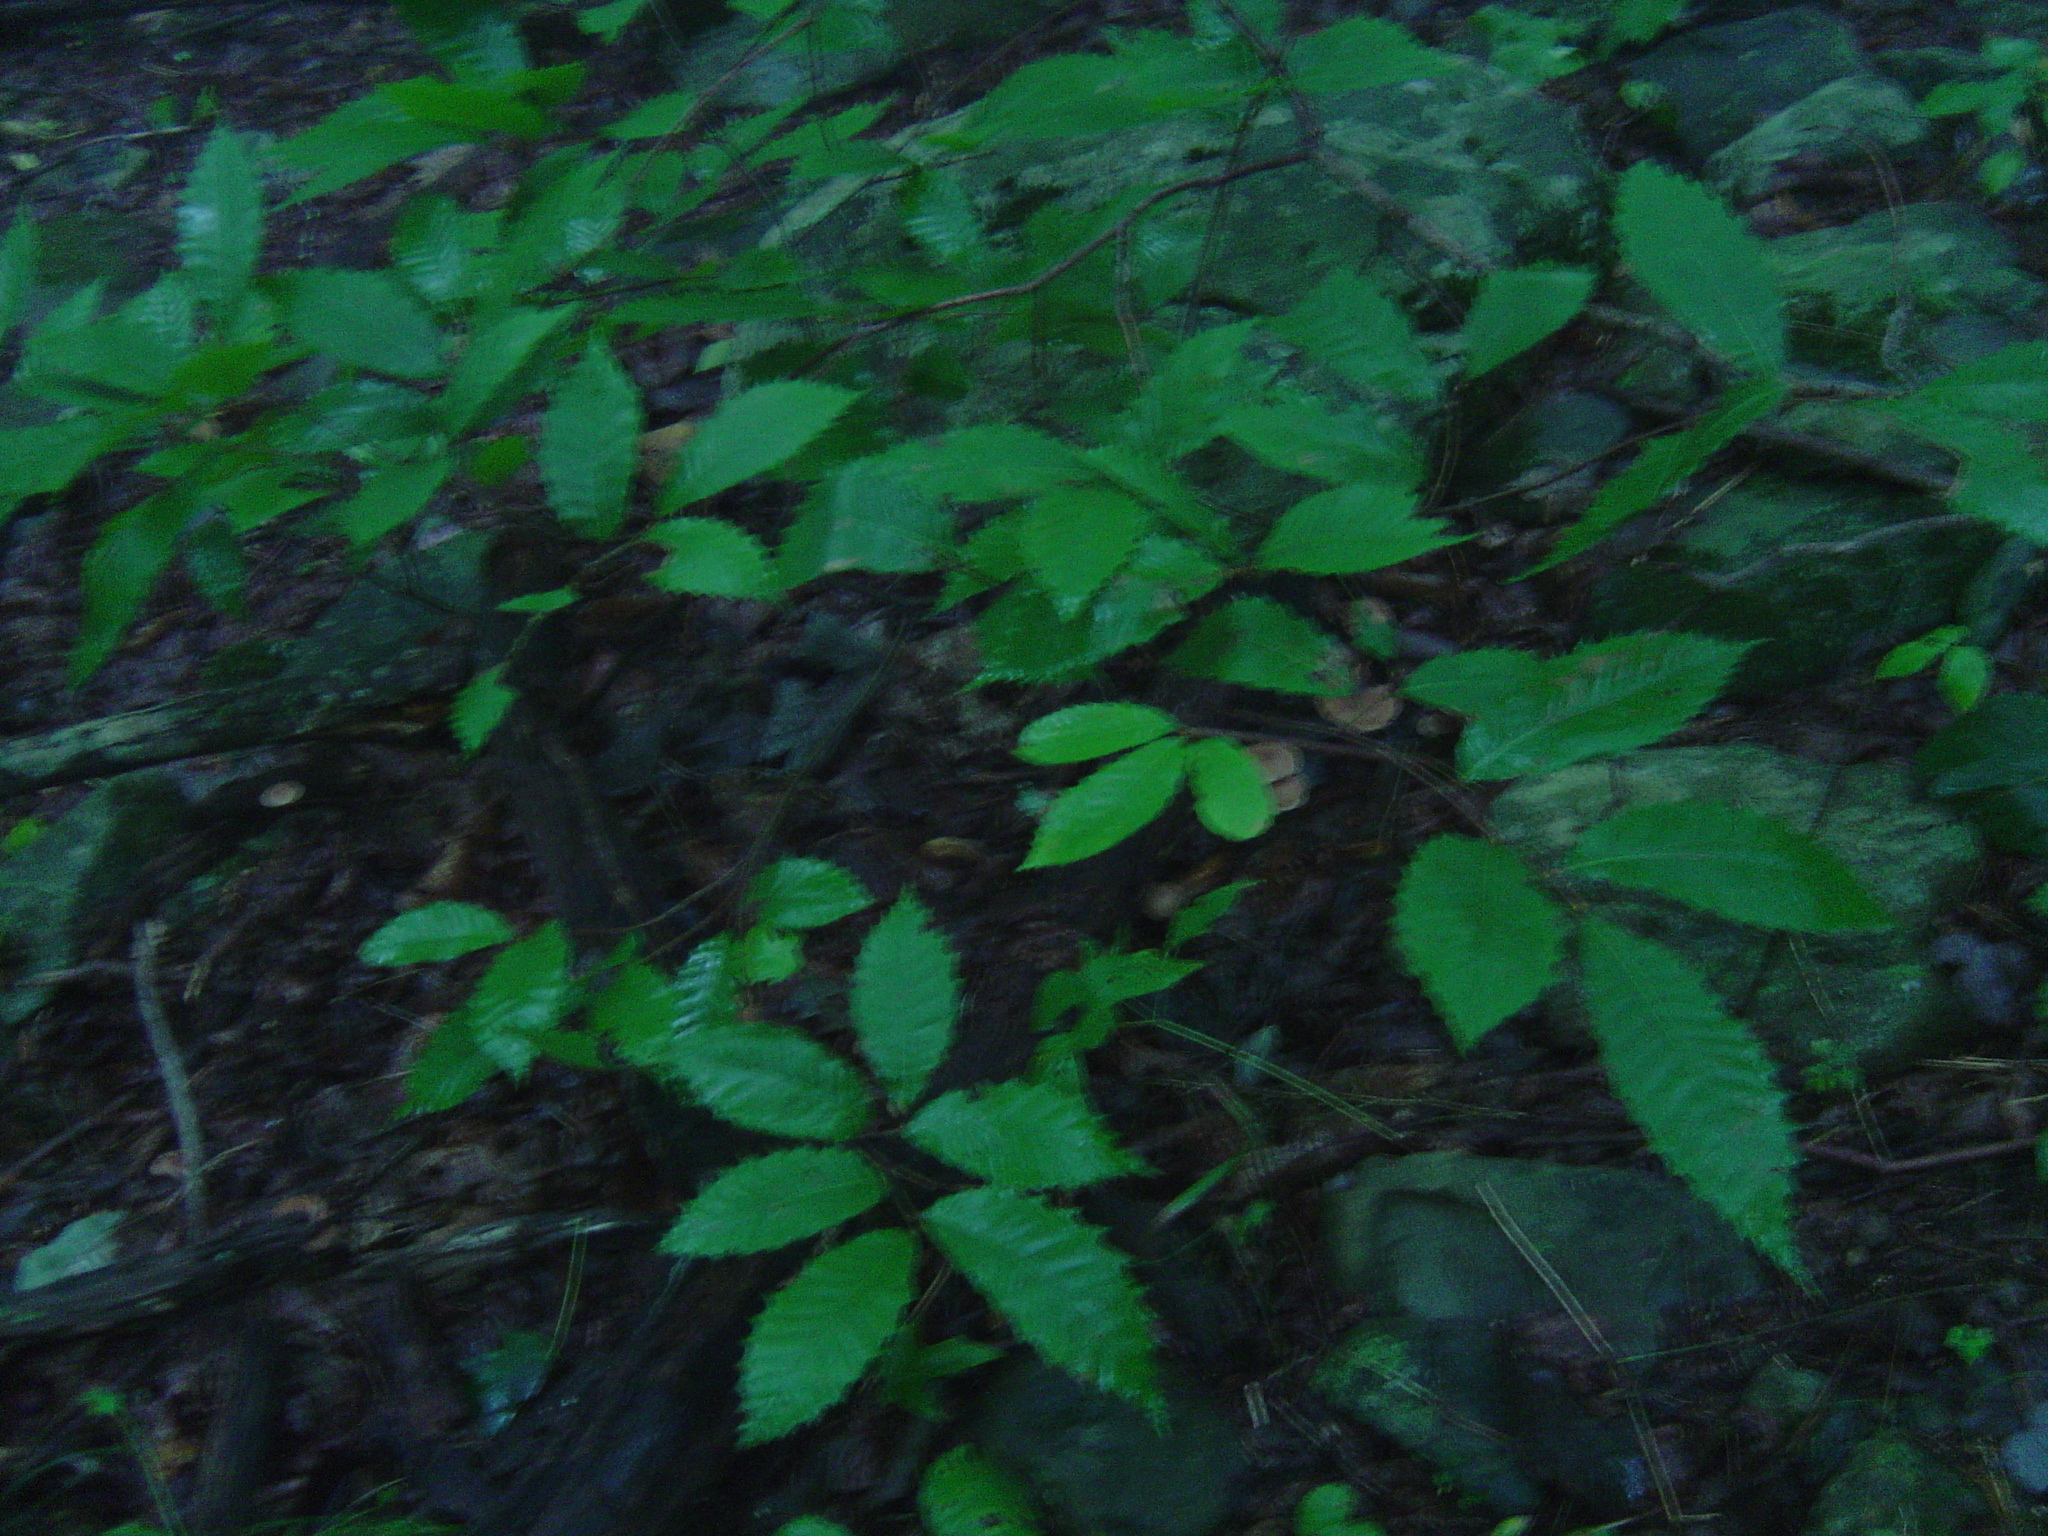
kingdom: Plantae
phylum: Tracheophyta
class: Magnoliopsida
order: Fagales
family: Fagaceae
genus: Castanea
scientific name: Castanea dentata
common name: American chestnut
